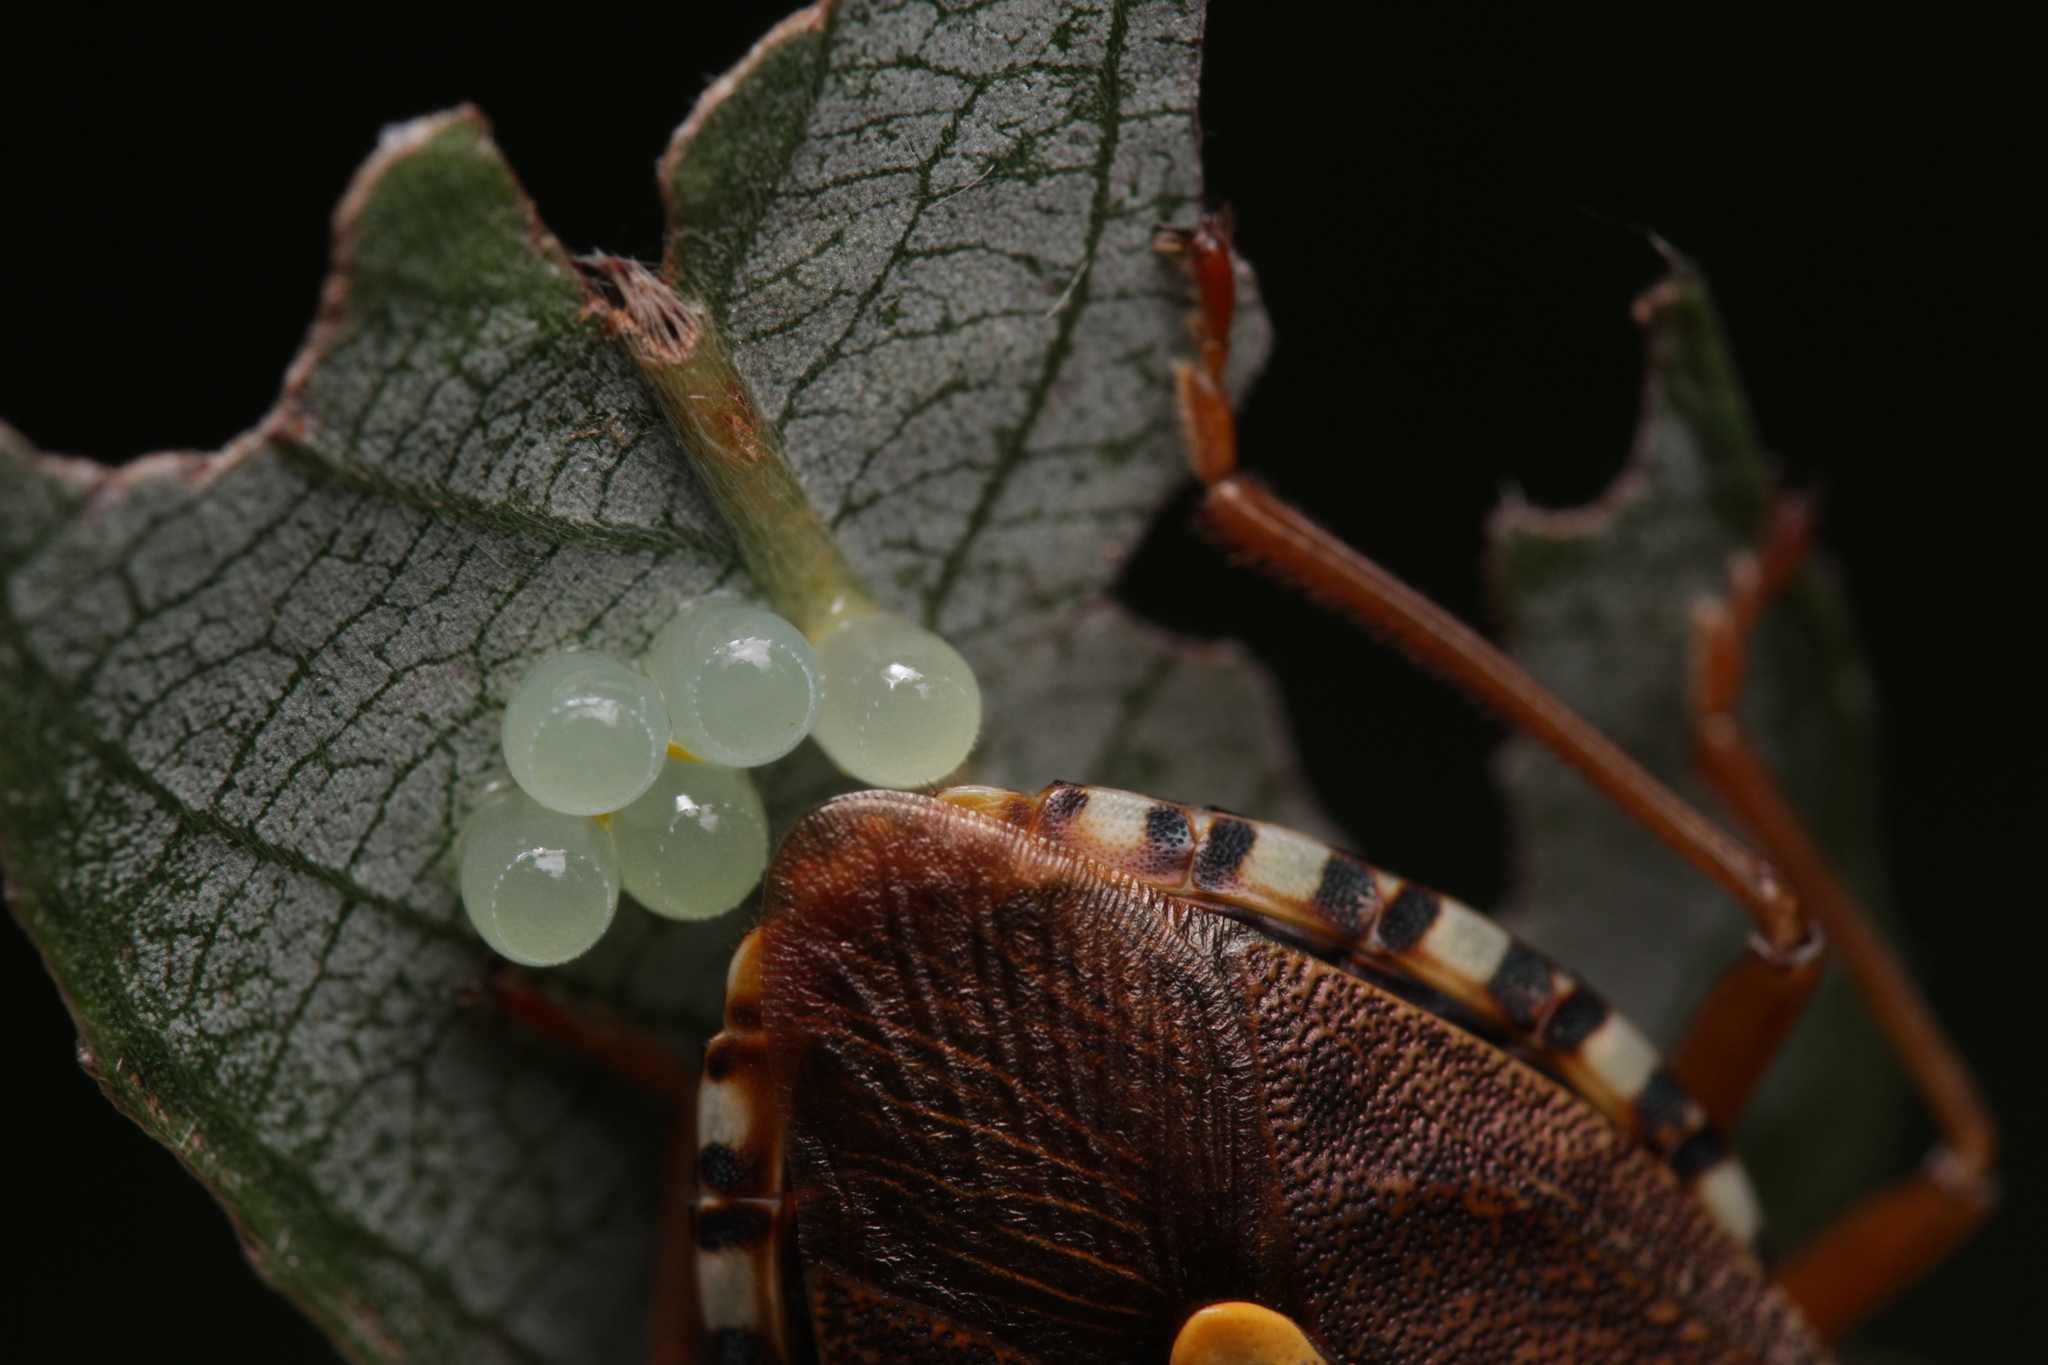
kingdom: Animalia
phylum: Arthropoda
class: Insecta
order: Hemiptera
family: Pentatomidae
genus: Pentatoma
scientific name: Pentatoma rufipes
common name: Forest bug
